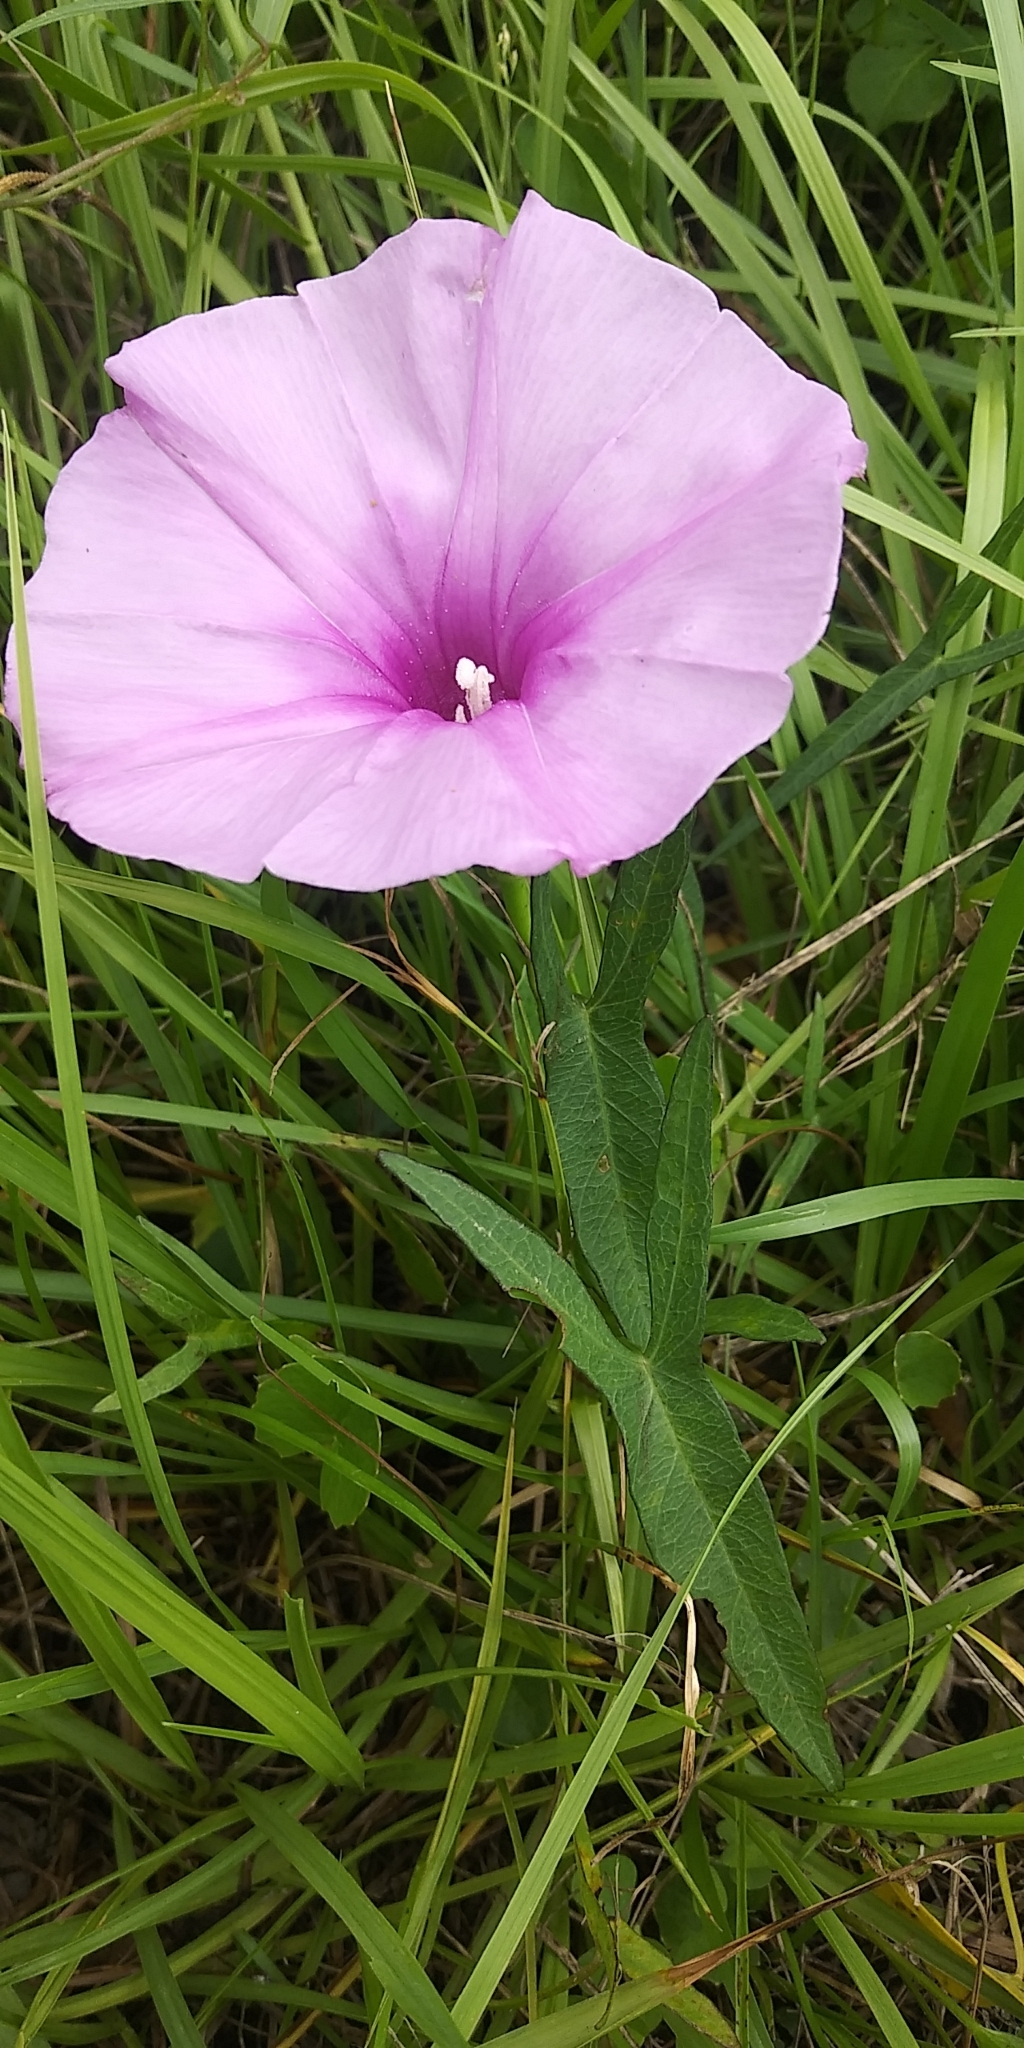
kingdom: Plantae
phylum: Tracheophyta
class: Magnoliopsida
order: Solanales
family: Convolvulaceae
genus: Ipomoea
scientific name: Ipomoea sagittata
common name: Saltmarsh morning glory
